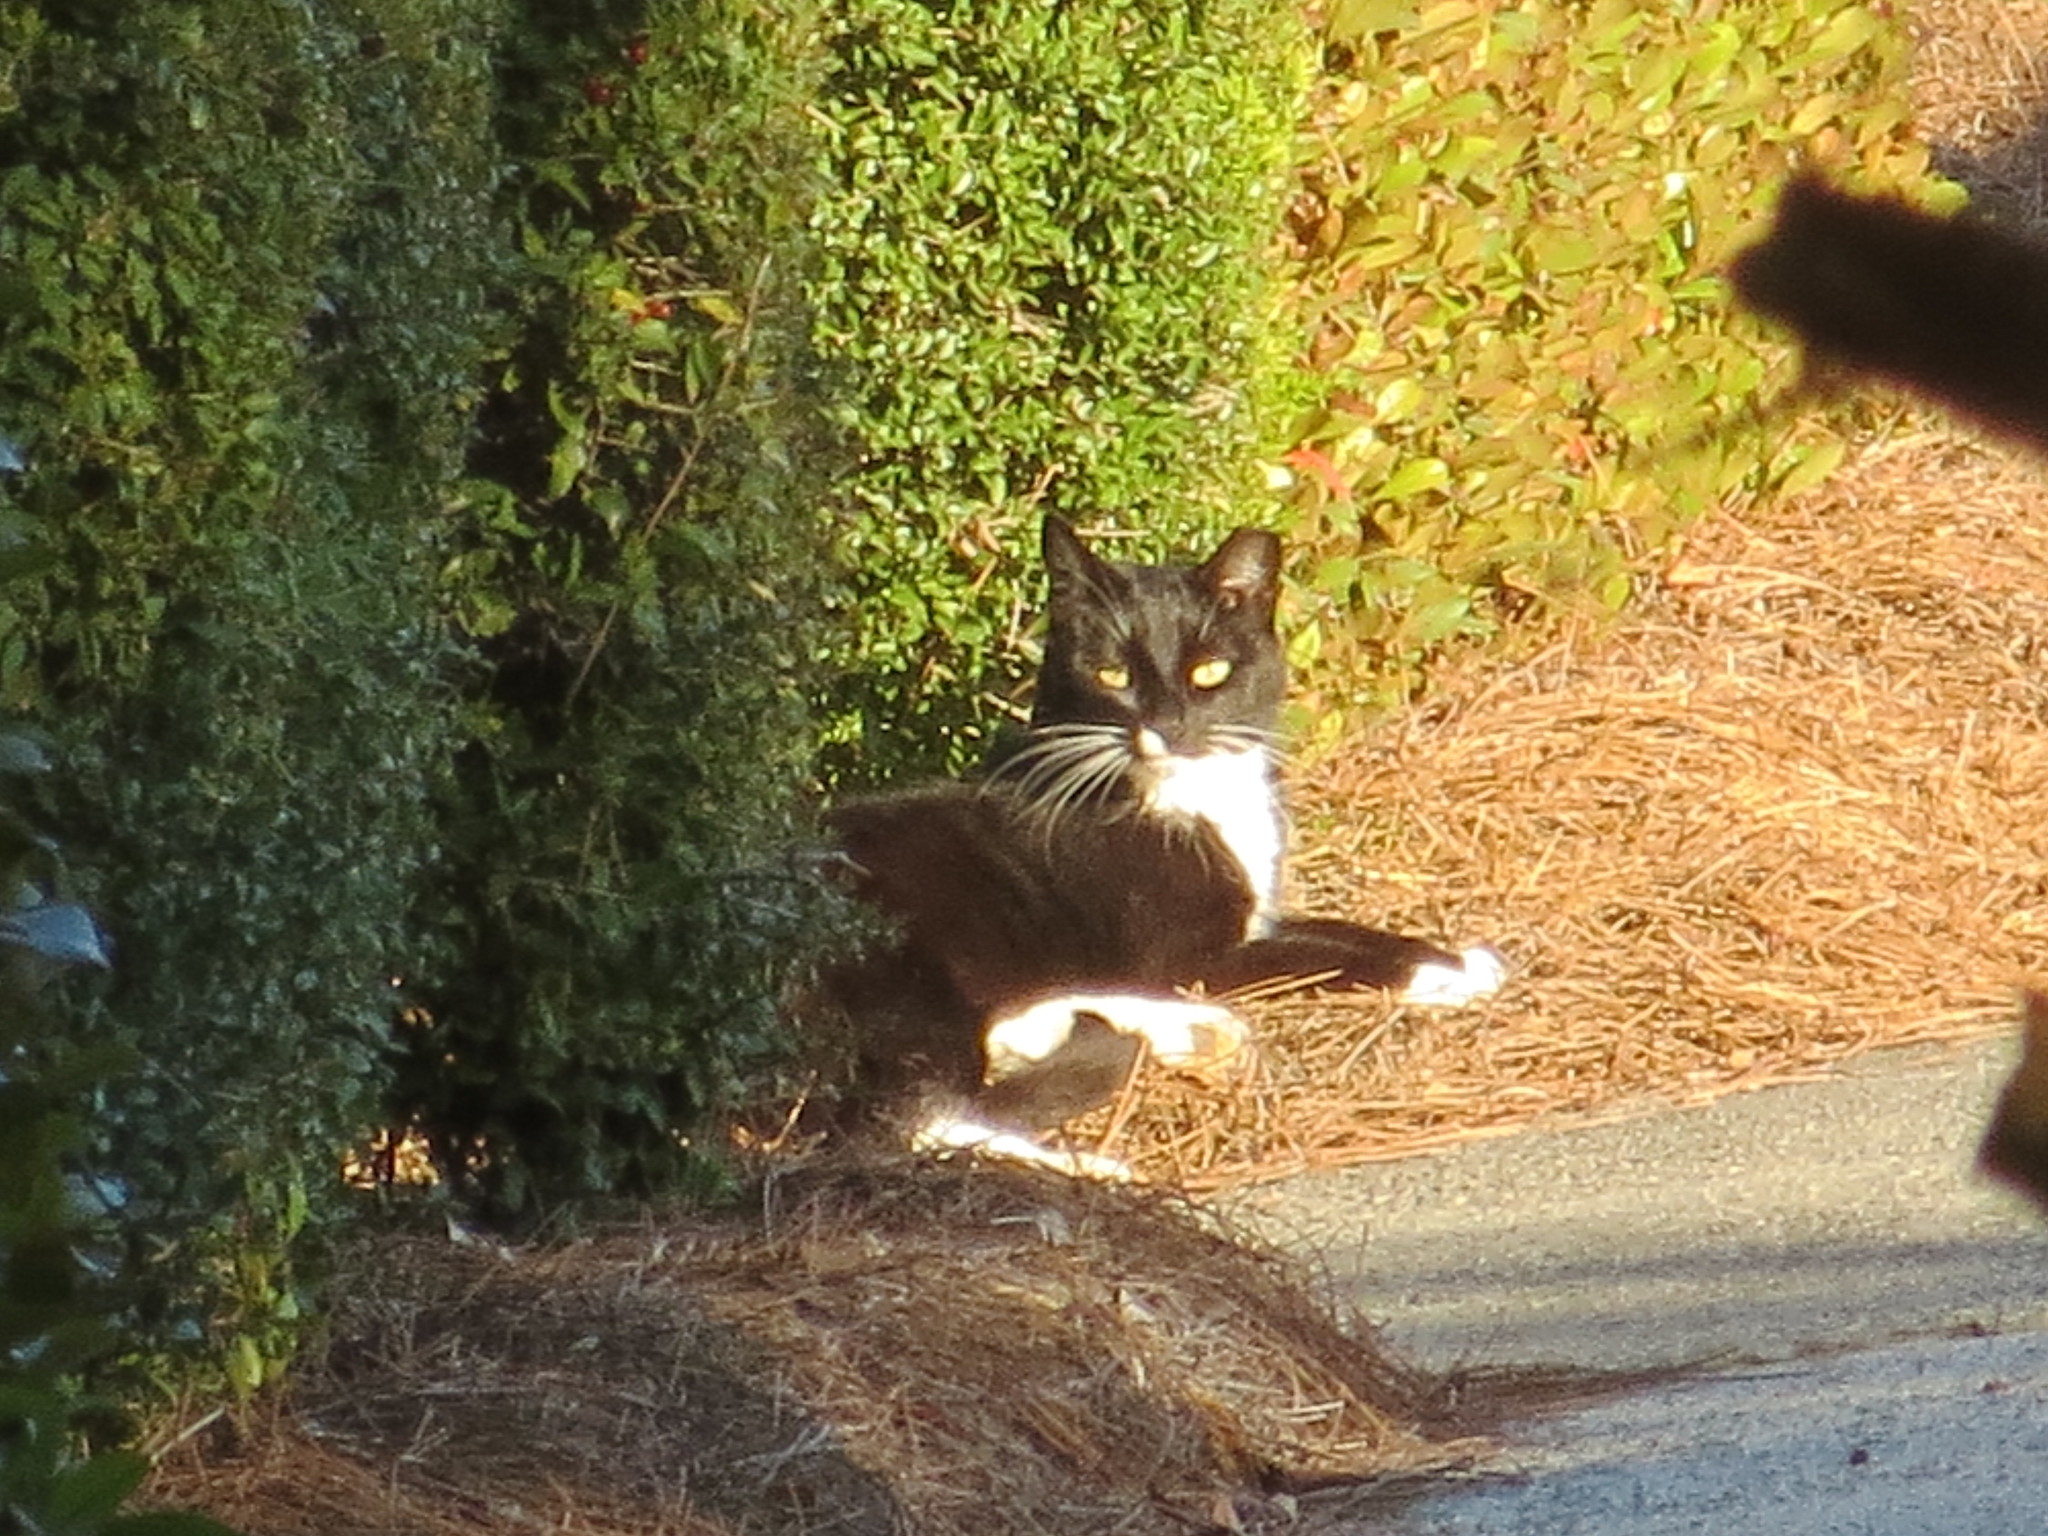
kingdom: Animalia
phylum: Chordata
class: Mammalia
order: Carnivora
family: Felidae
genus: Felis
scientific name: Felis catus
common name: Domestic cat
